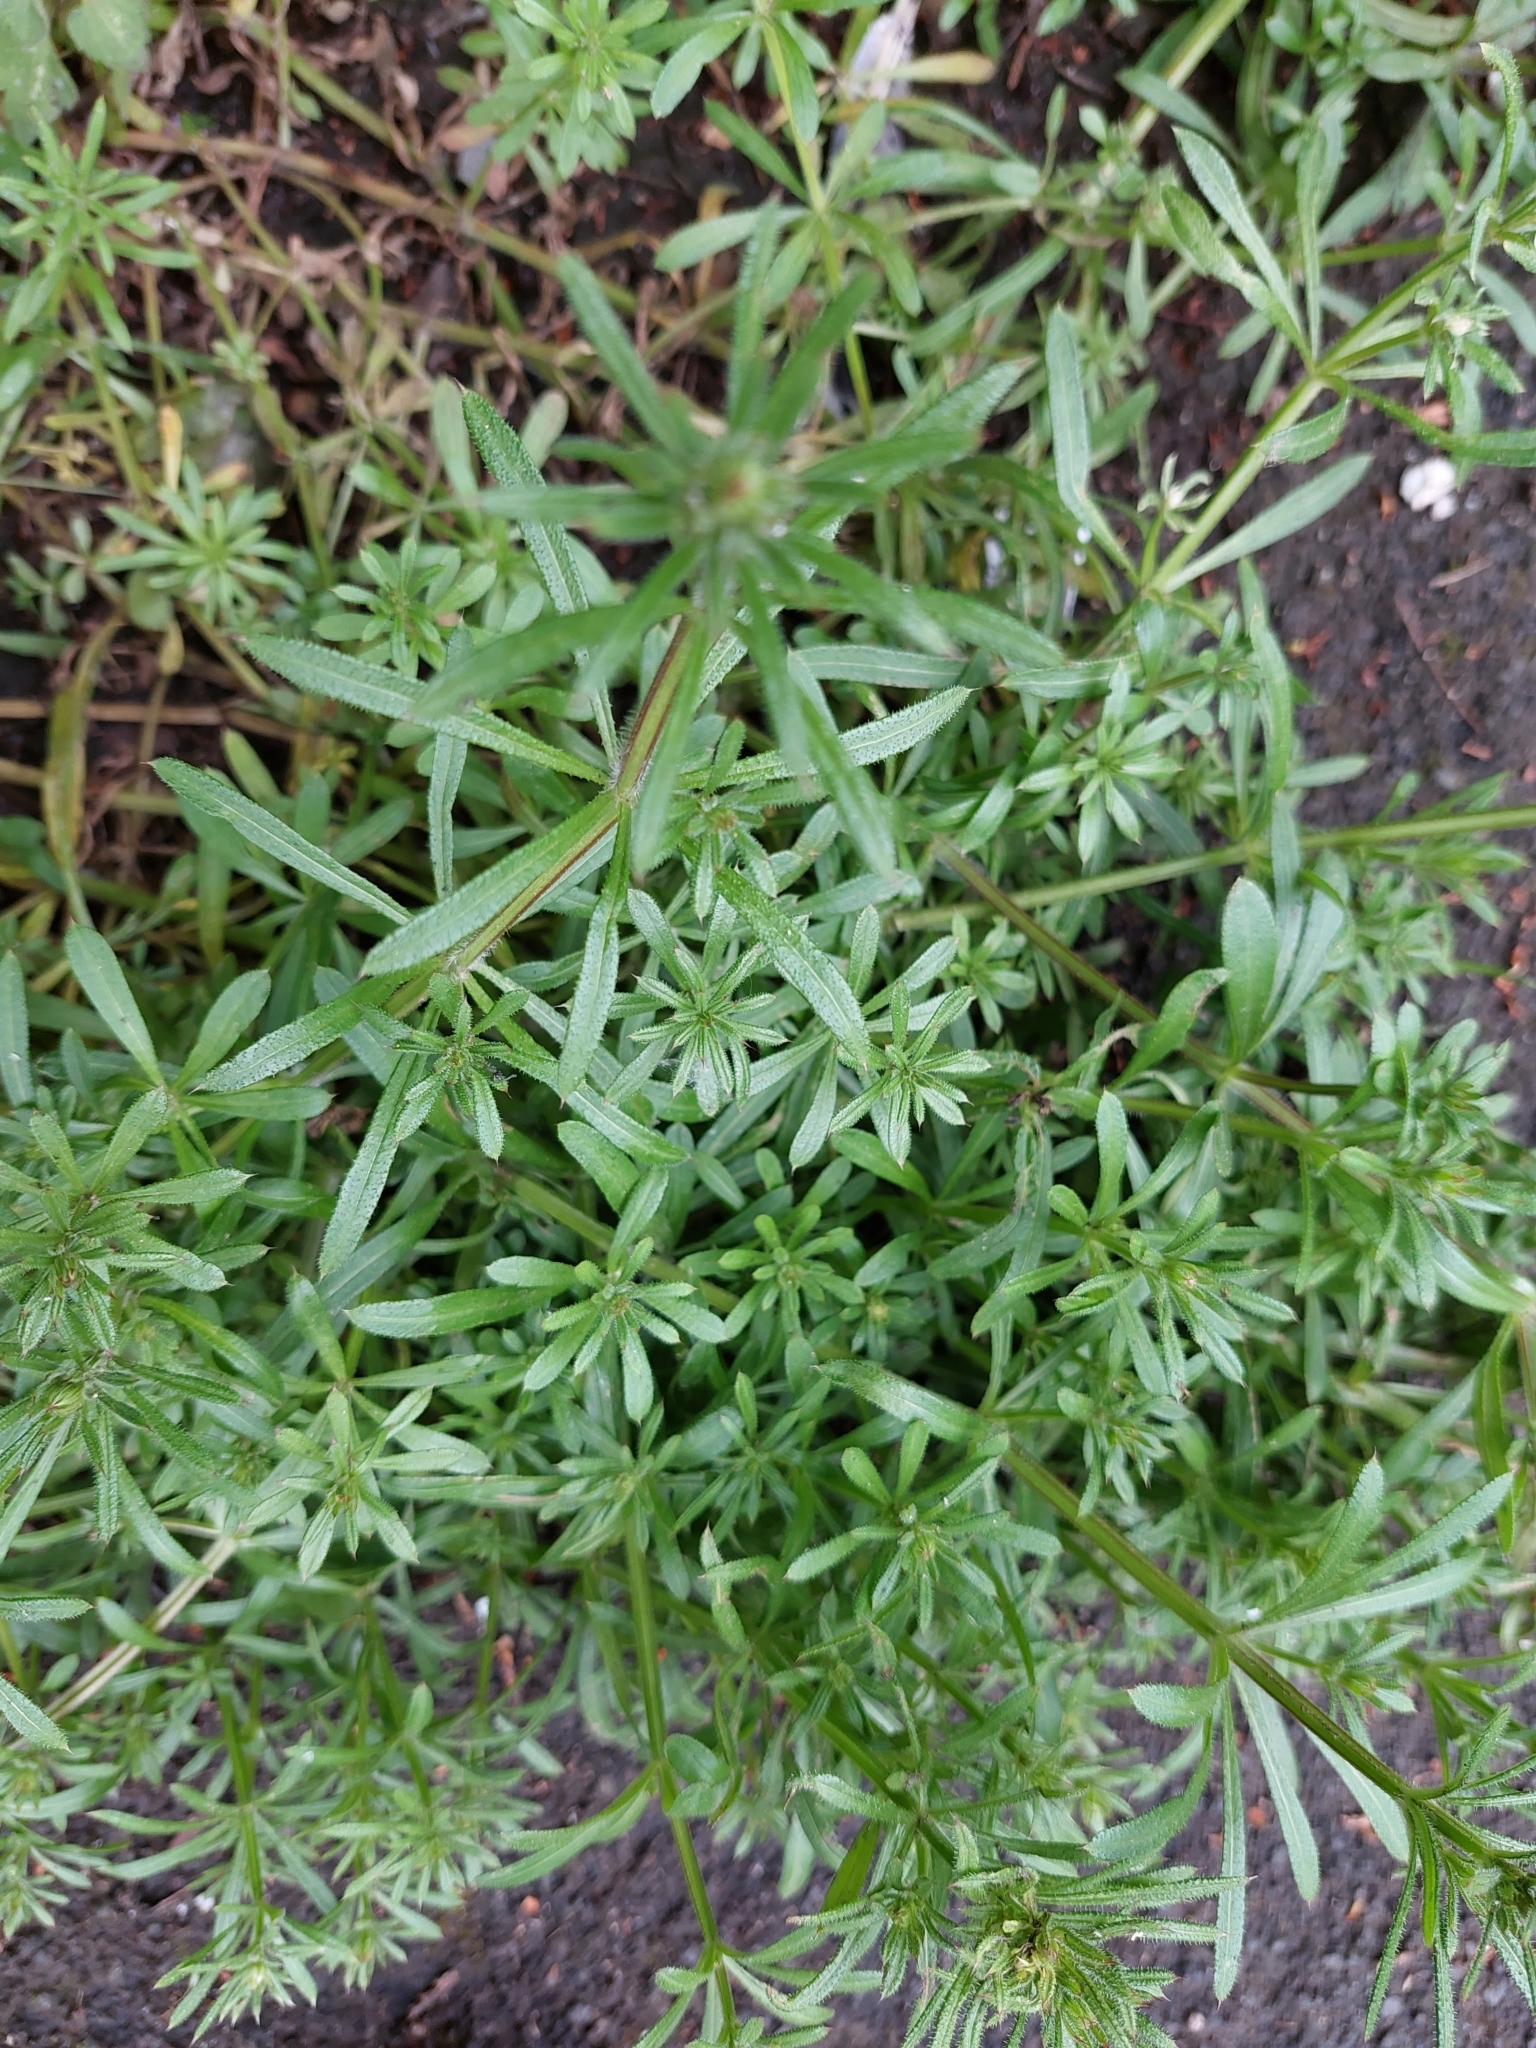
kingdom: Plantae
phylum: Tracheophyta
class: Magnoliopsida
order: Gentianales
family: Rubiaceae
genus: Galium
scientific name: Galium aparine
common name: Cleavers
